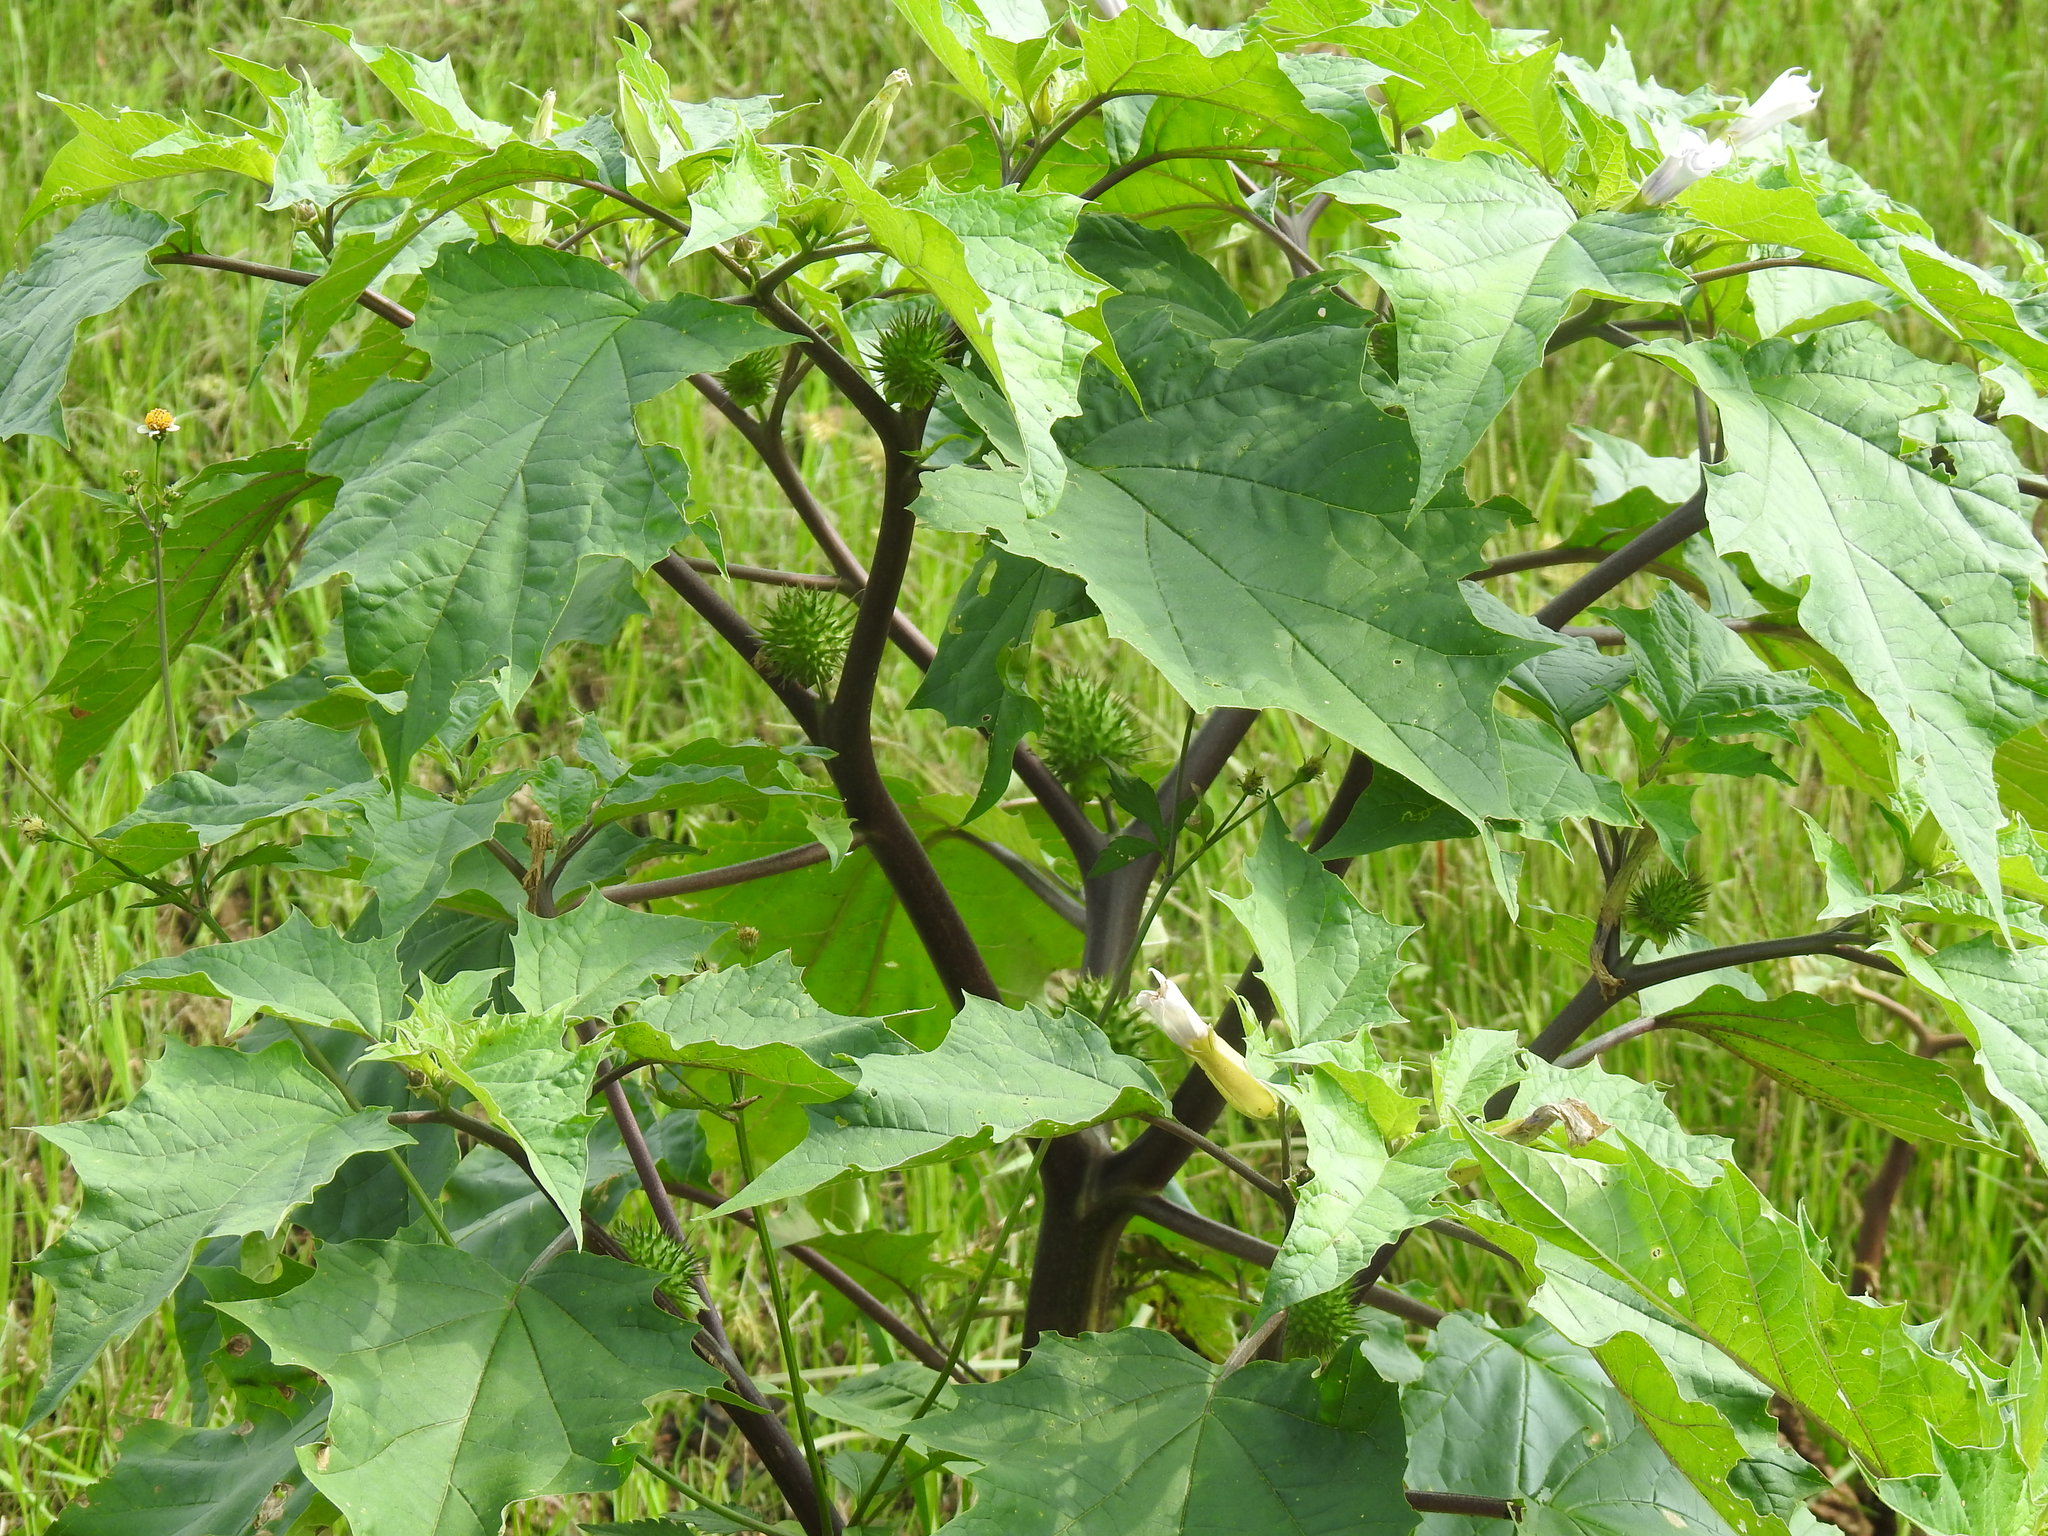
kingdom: Plantae
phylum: Tracheophyta
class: Magnoliopsida
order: Solanales
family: Solanaceae
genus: Datura
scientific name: Datura stramonium
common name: Thorn-apple
